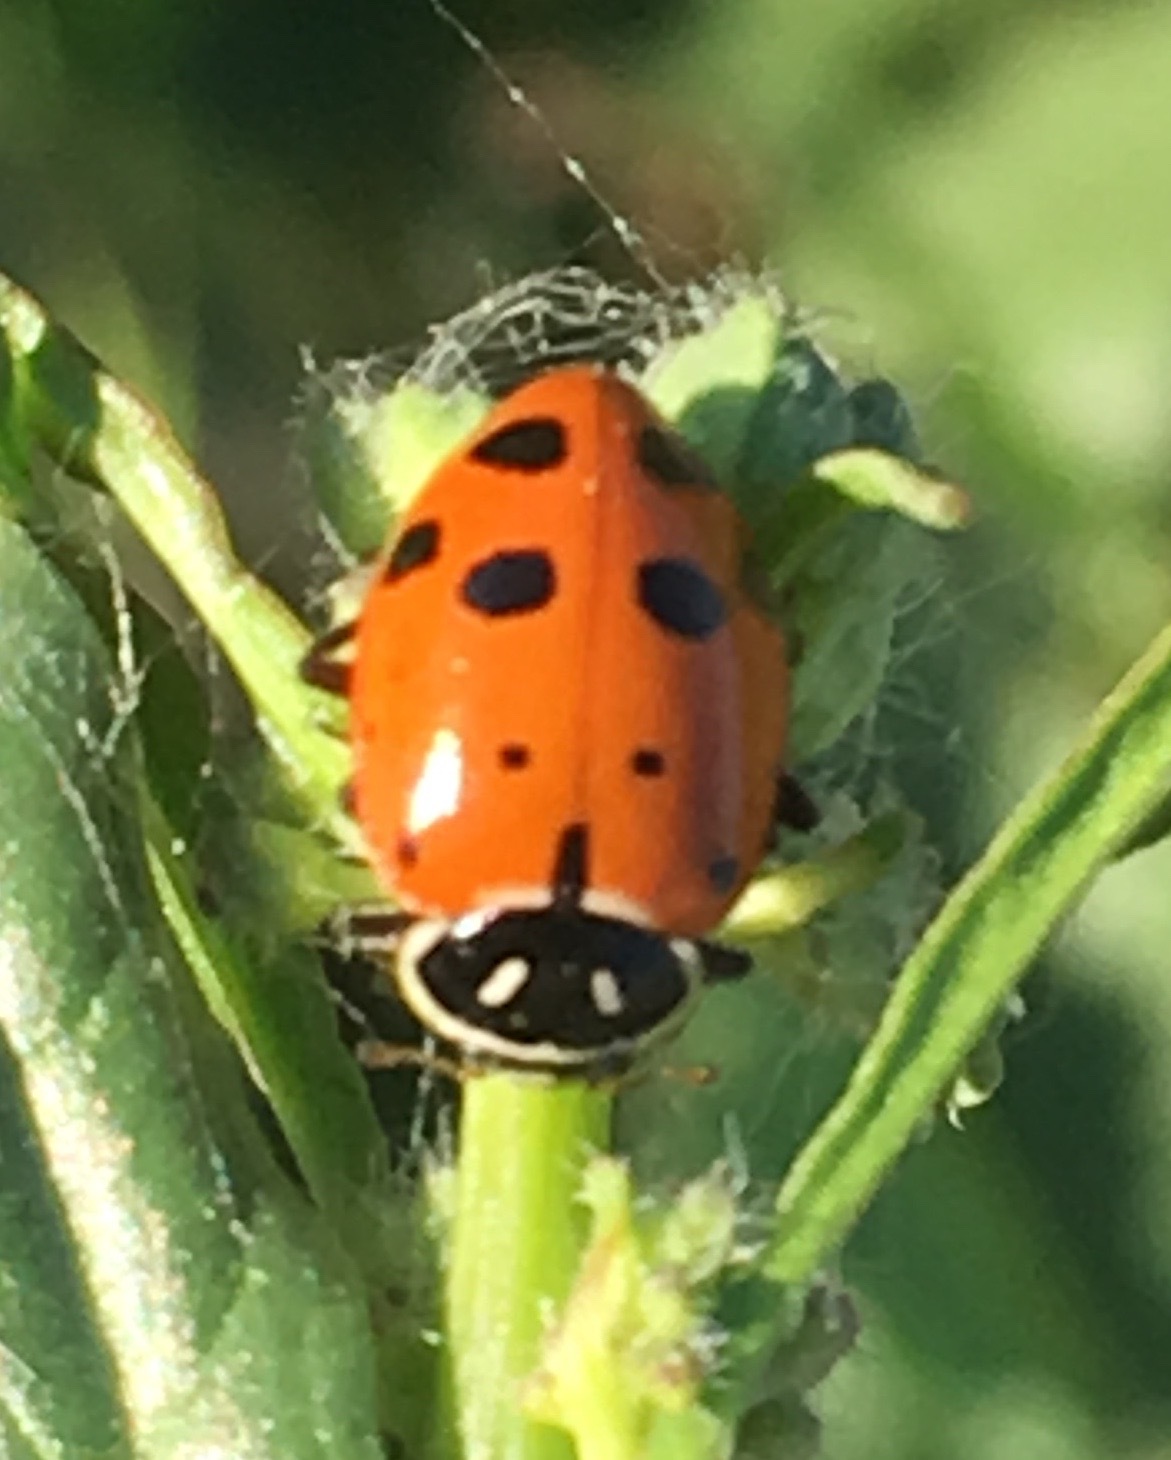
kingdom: Animalia
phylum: Arthropoda
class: Insecta
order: Coleoptera
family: Coccinellidae
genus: Hippodamia
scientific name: Hippodamia convergens
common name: Convergent lady beetle
